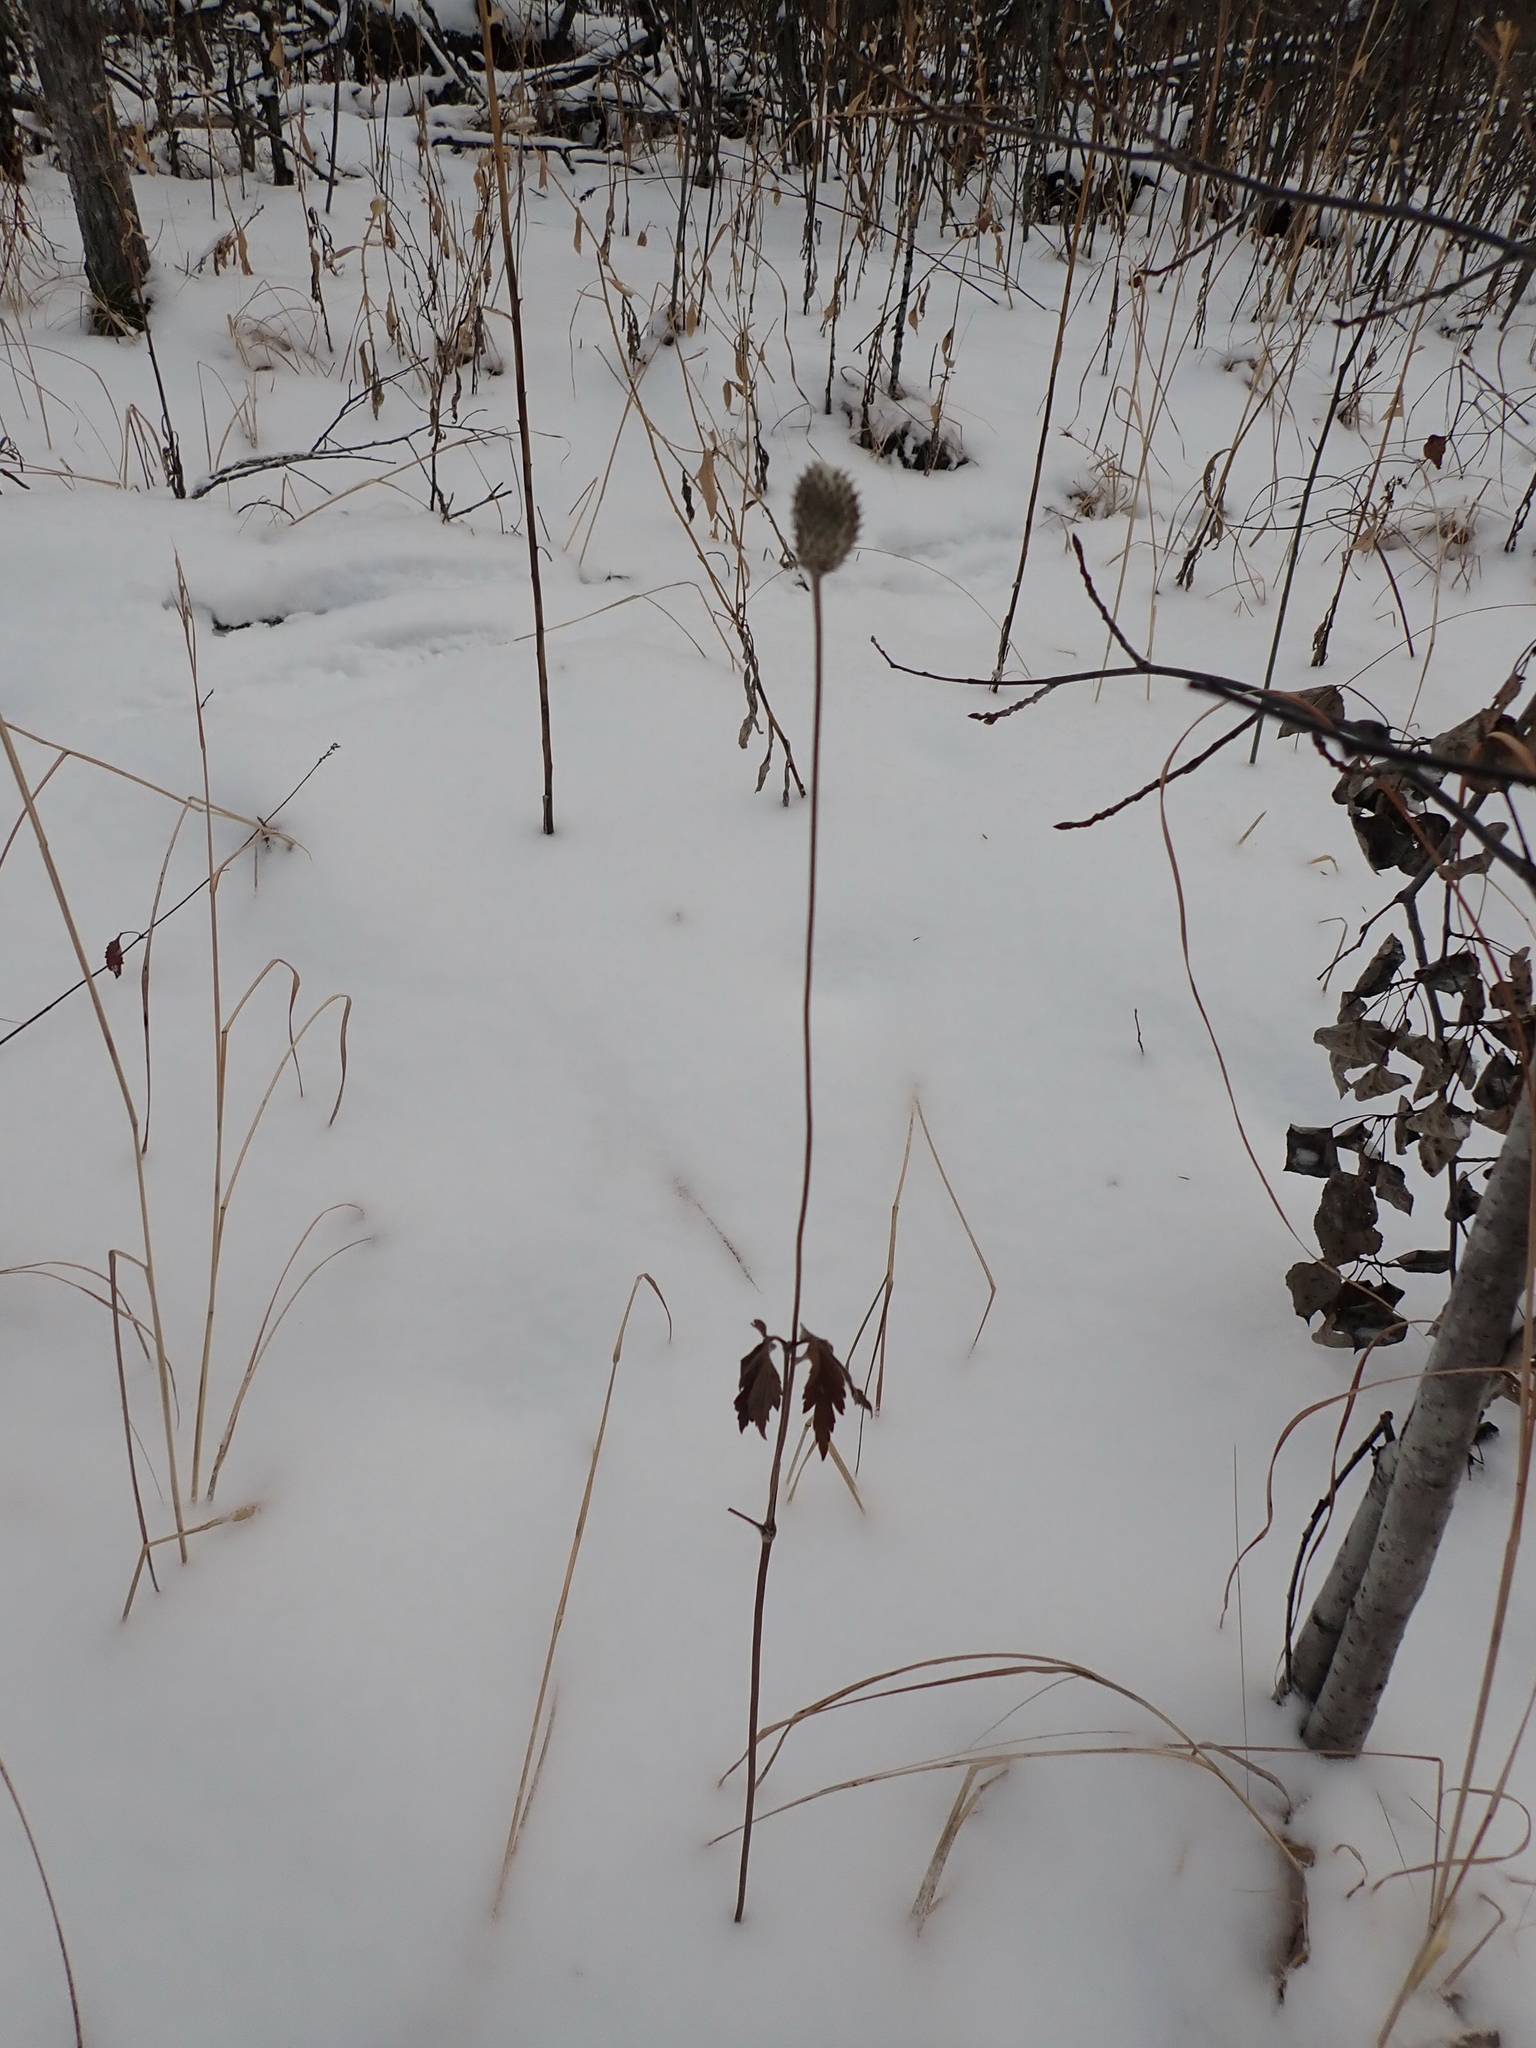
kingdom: Plantae
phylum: Tracheophyta
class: Magnoliopsida
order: Ranunculales
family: Ranunculaceae
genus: Anemone
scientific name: Anemone cylindrica
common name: Candle anemone
